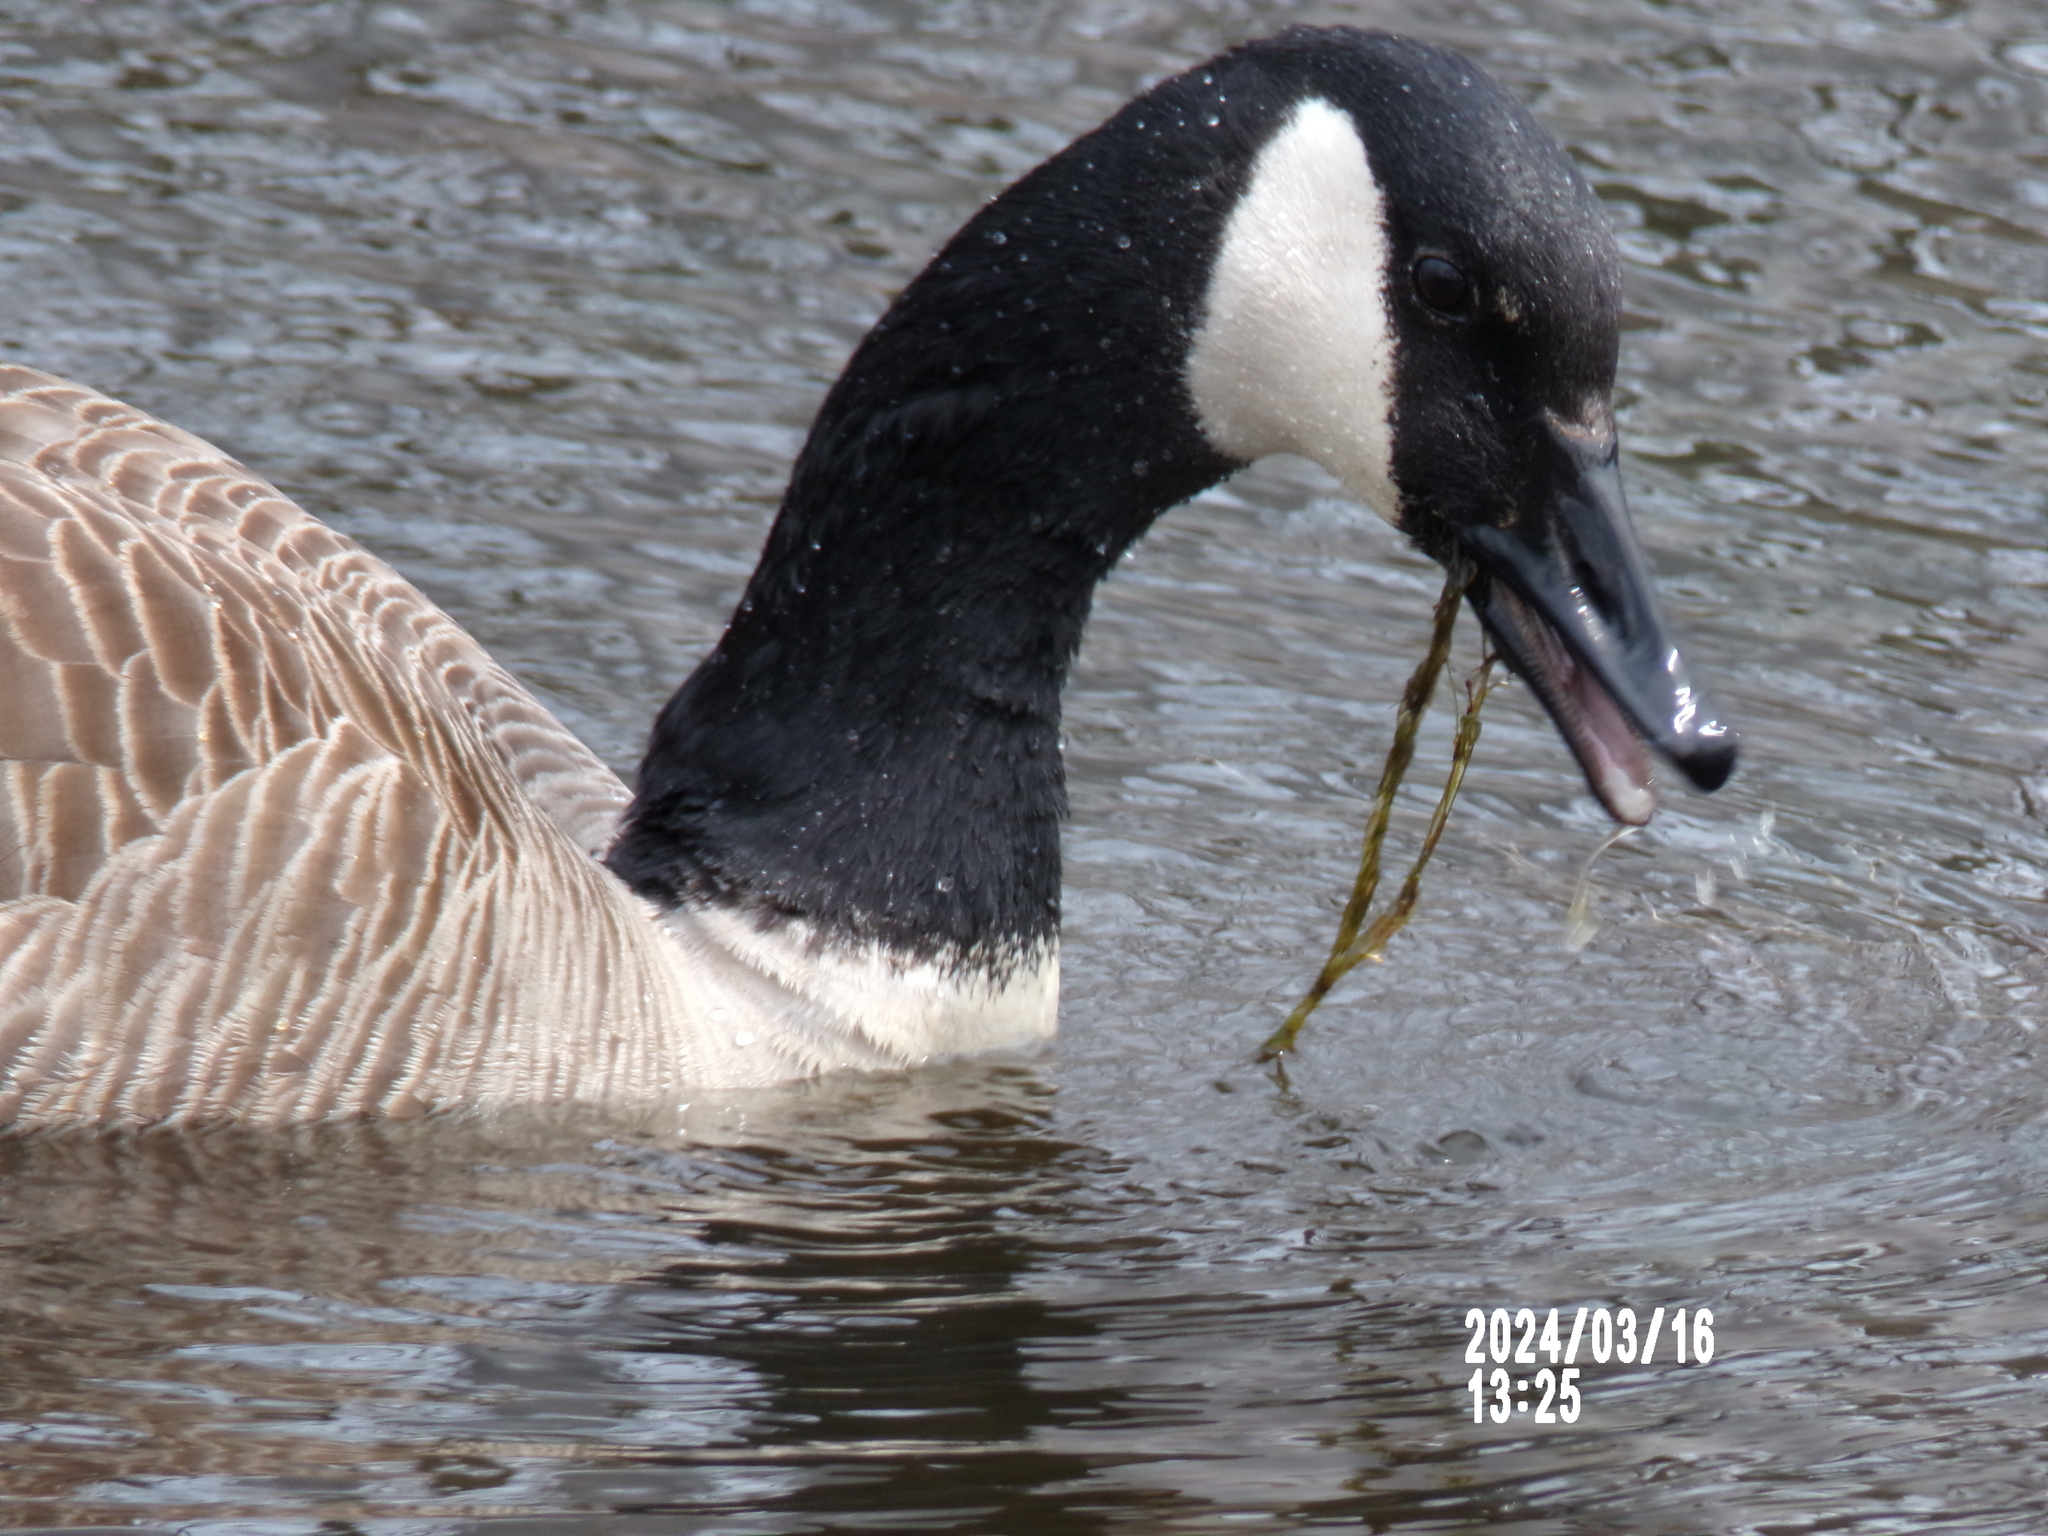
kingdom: Animalia
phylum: Chordata
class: Aves
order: Anseriformes
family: Anatidae
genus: Branta
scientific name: Branta canadensis
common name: Canada goose
